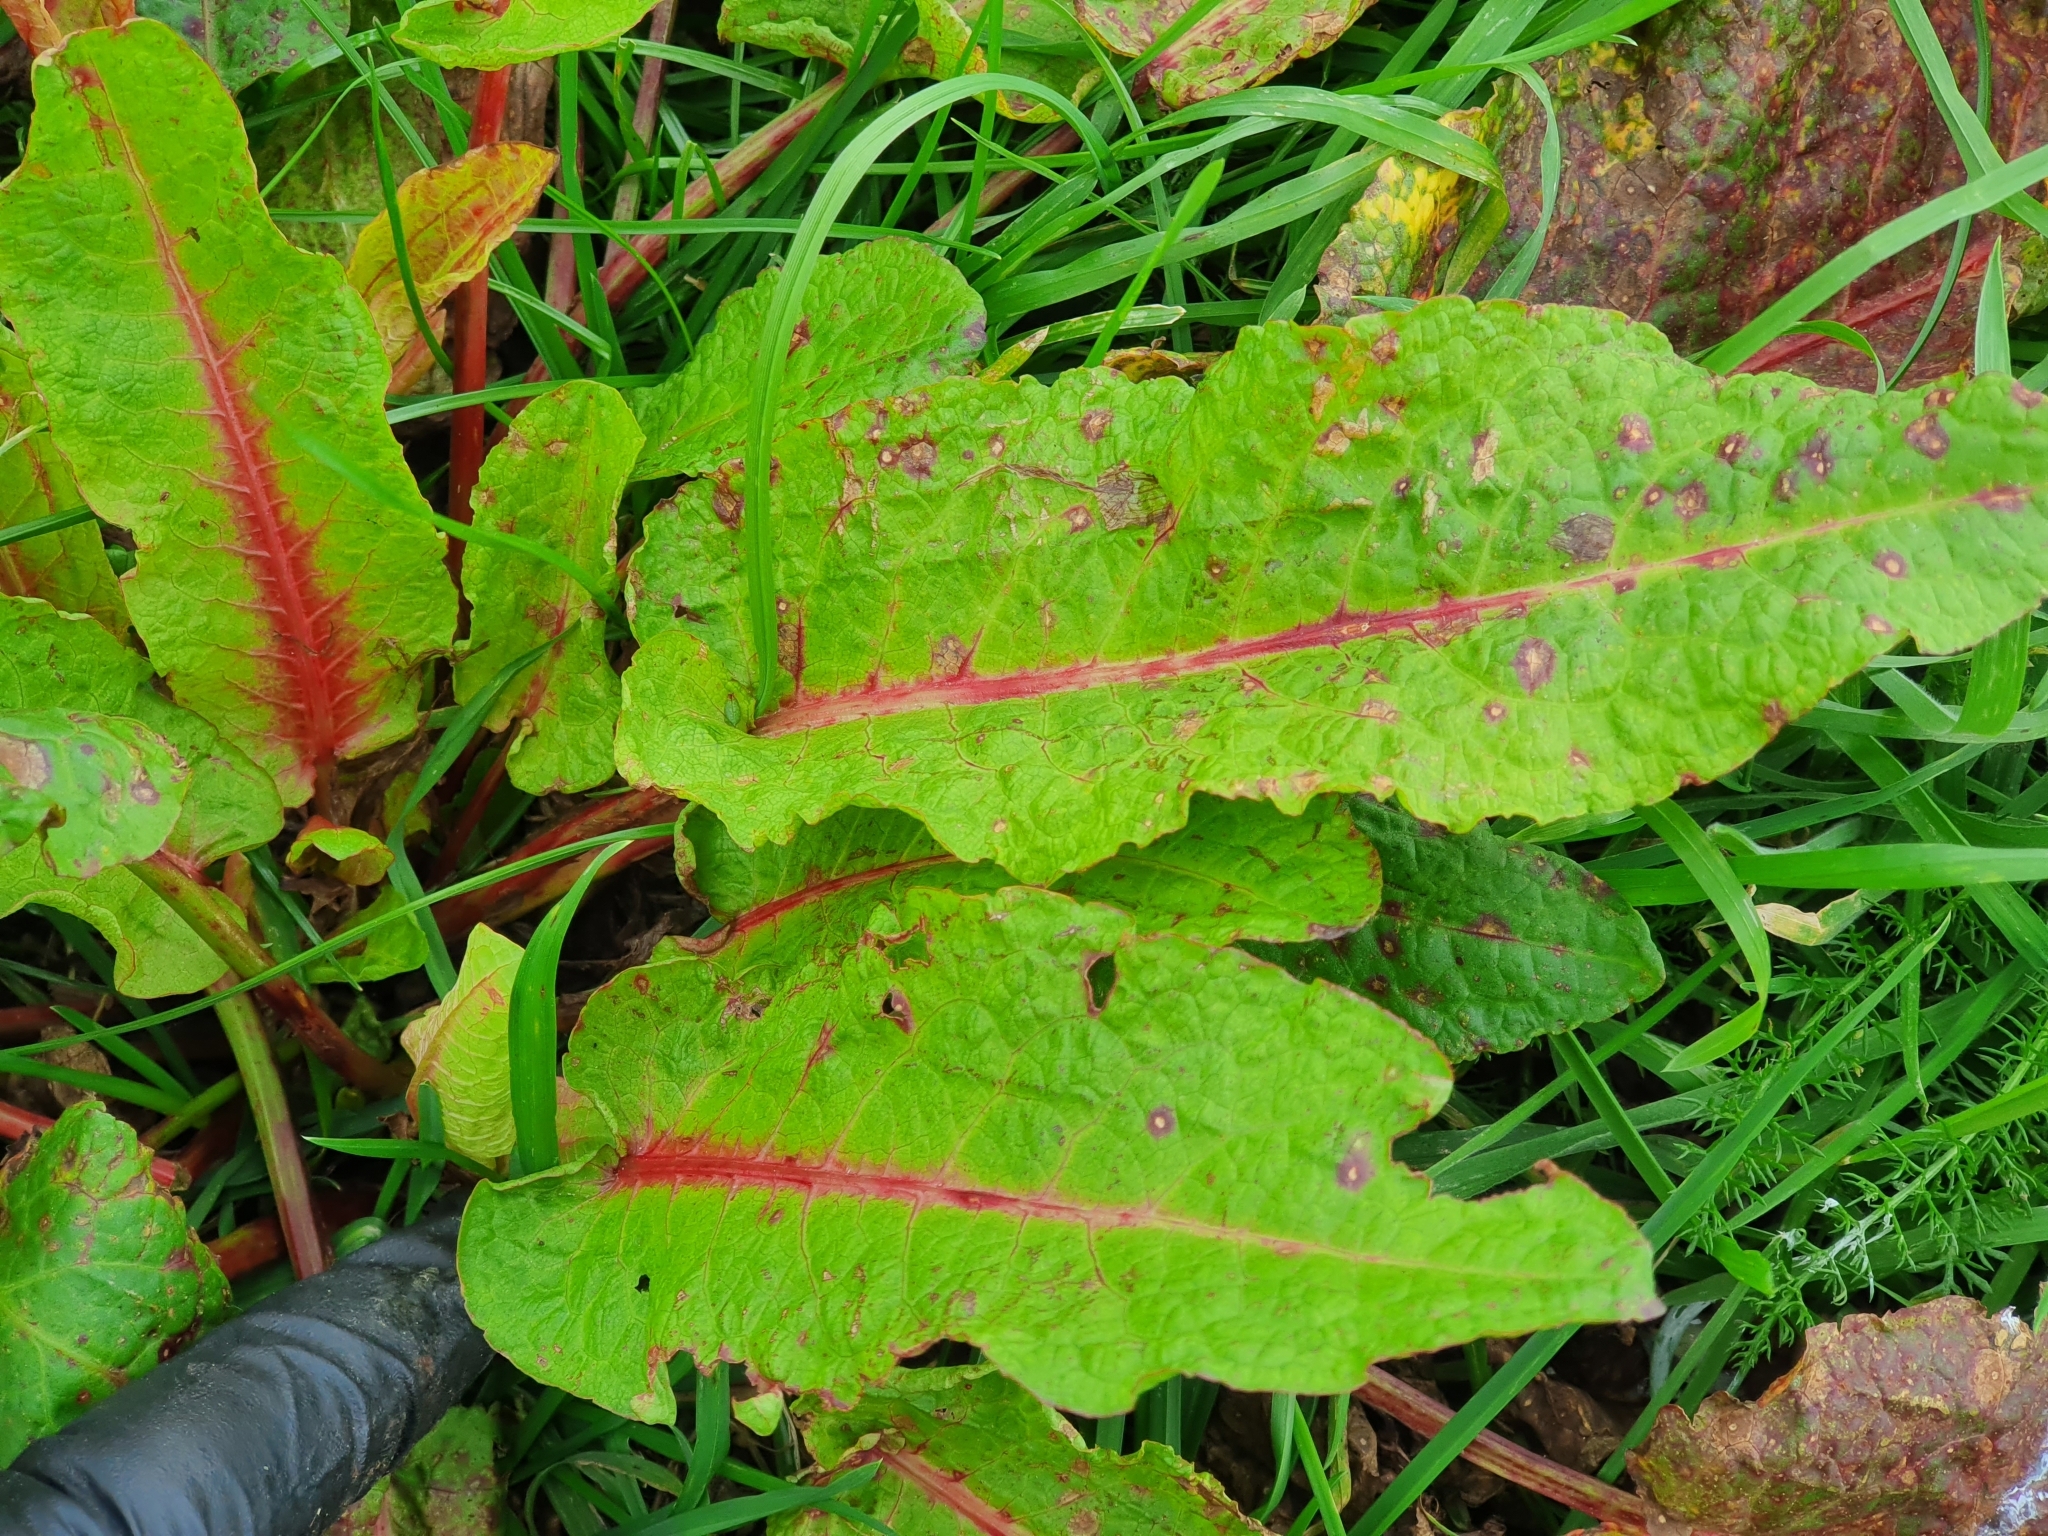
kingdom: Plantae
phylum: Tracheophyta
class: Magnoliopsida
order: Caryophyllales
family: Polygonaceae
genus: Rumex
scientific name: Rumex obtusifolius
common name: Bitter dock
